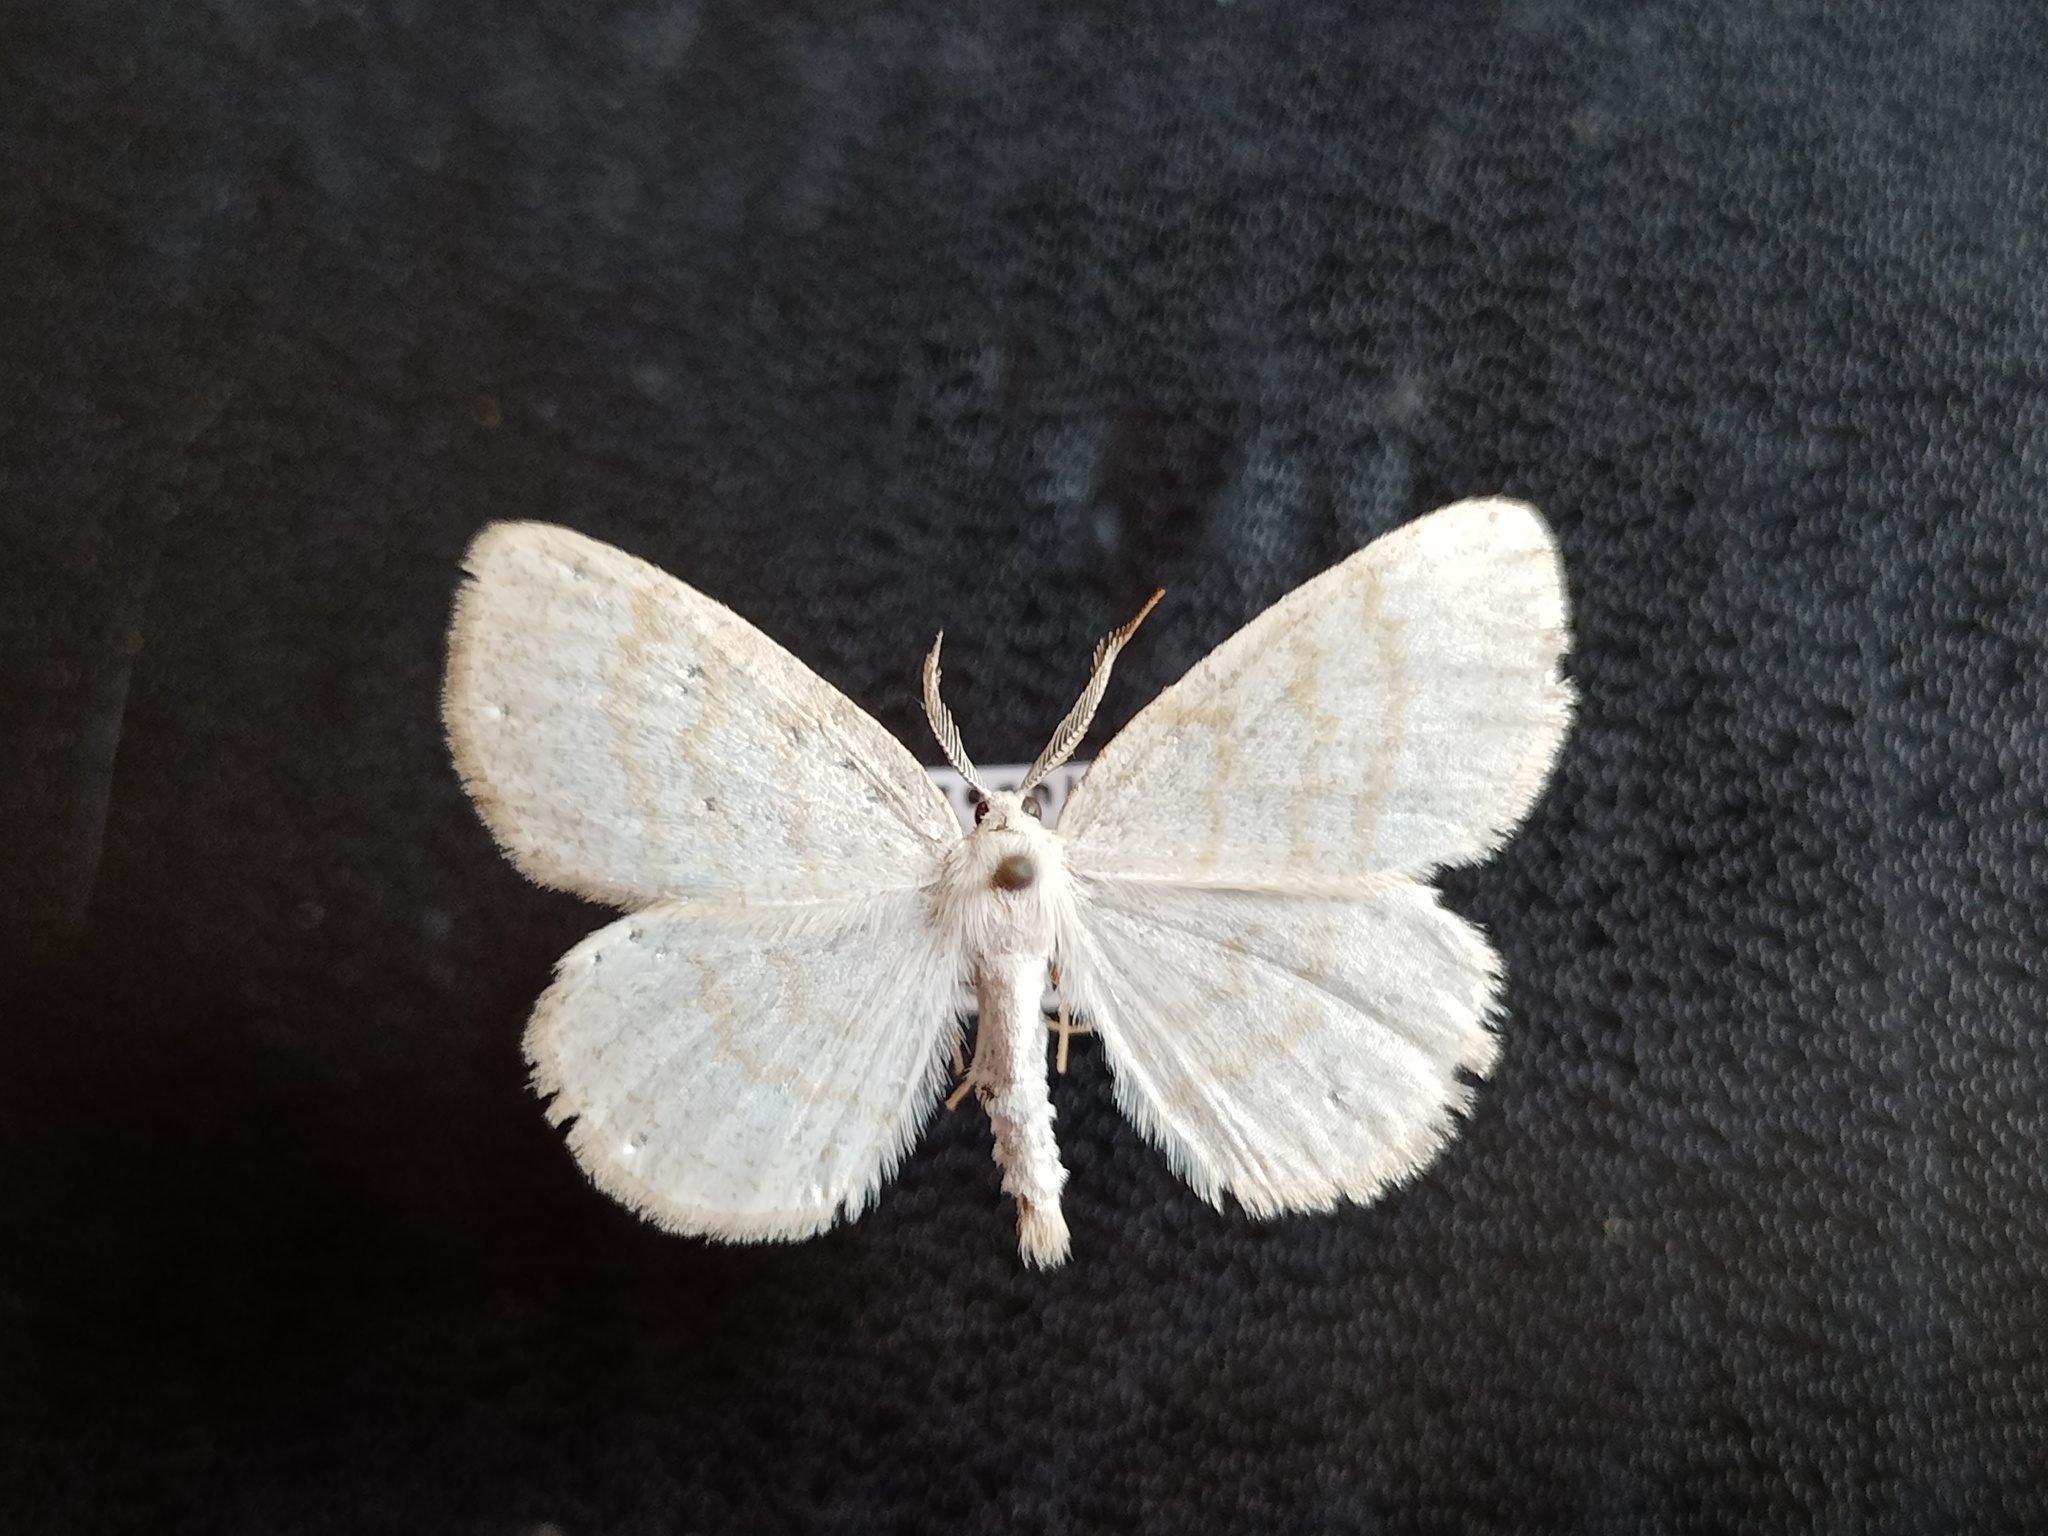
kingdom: Animalia
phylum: Arthropoda
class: Insecta
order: Lepidoptera
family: Geometridae
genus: Cabera
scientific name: Cabera exanthemata
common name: Common wave
